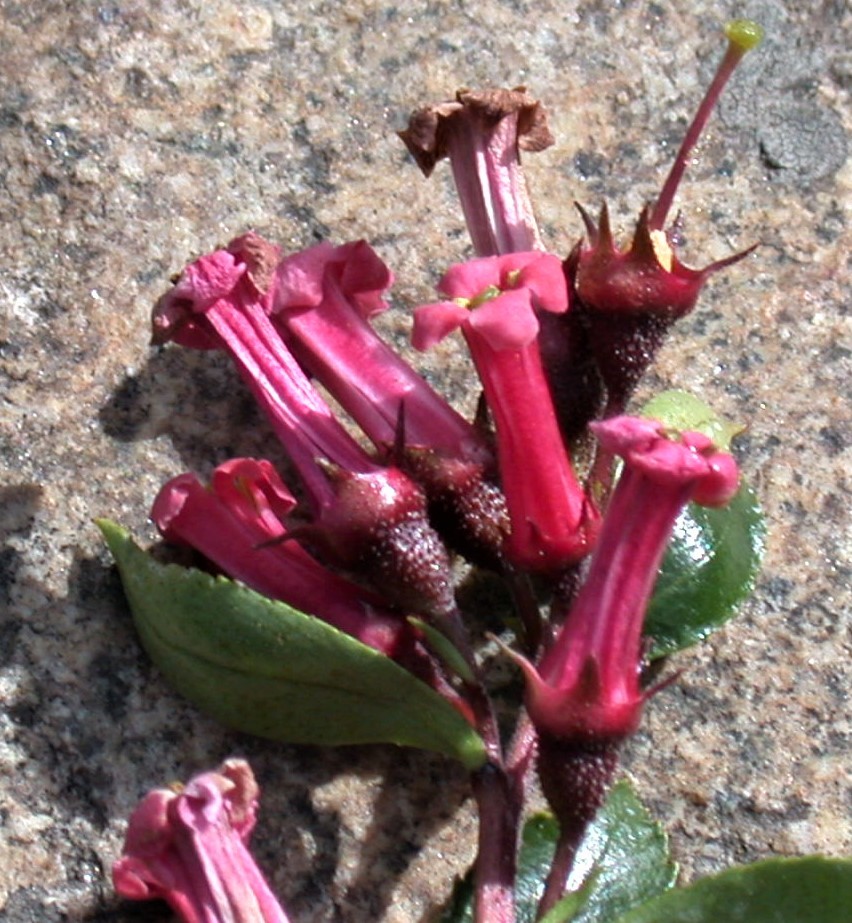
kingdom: Plantae
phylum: Tracheophyta
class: Magnoliopsida
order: Escalloniales
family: Escalloniaceae
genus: Escallonia
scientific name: Escallonia rubra
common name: Redclaws
